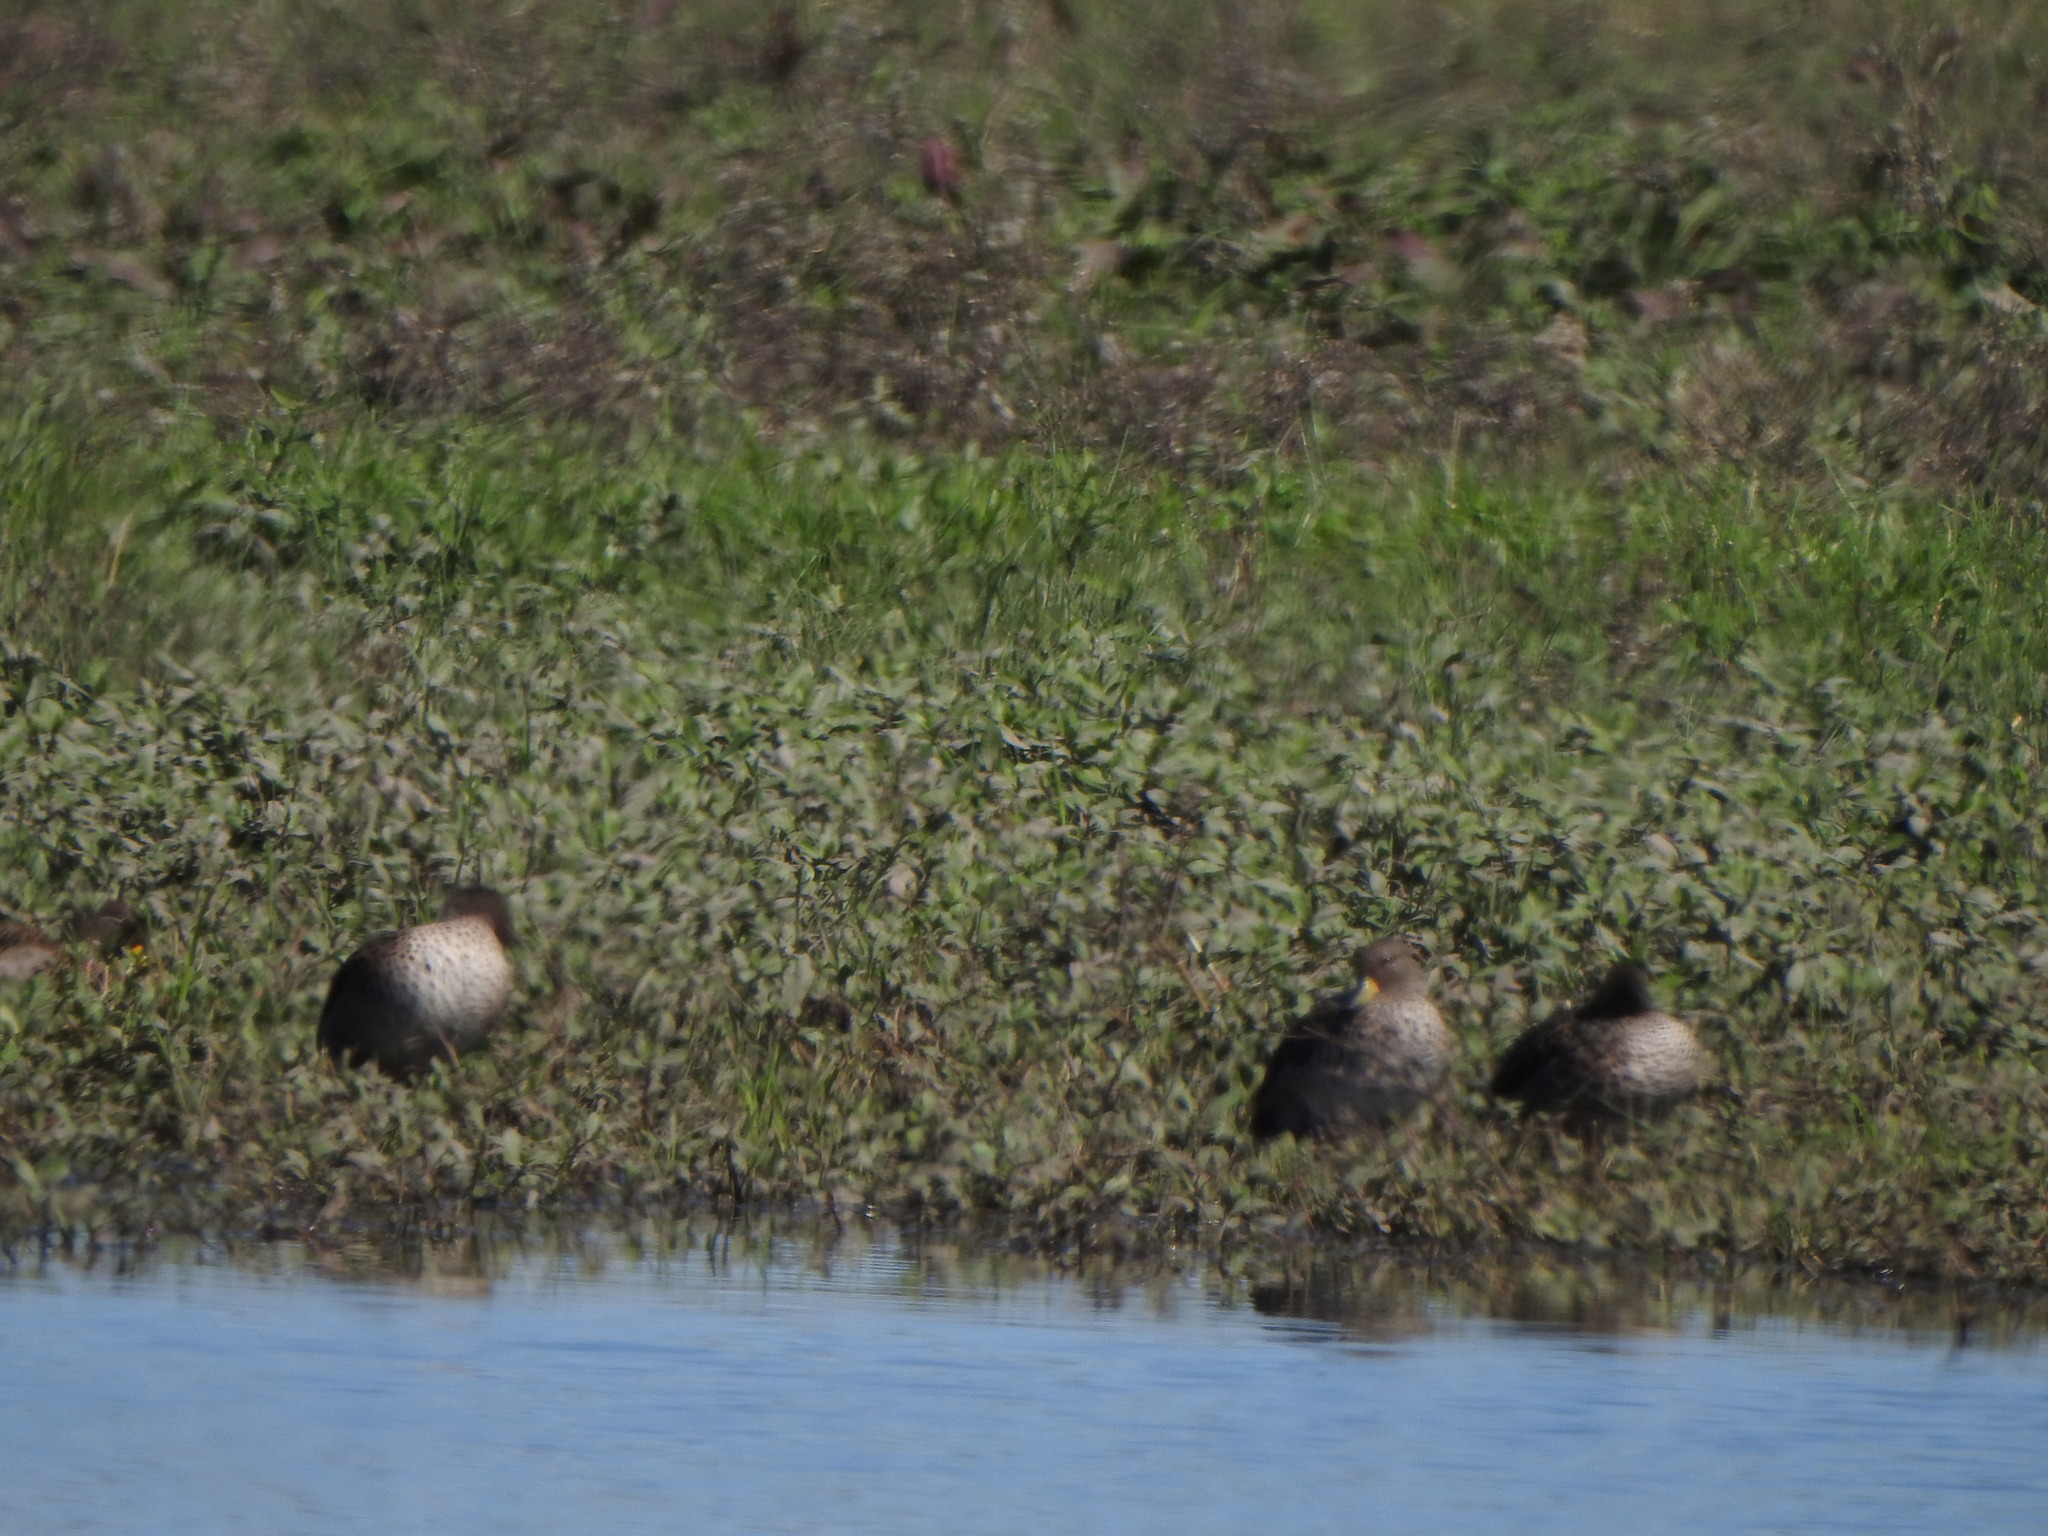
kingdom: Animalia
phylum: Chordata
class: Aves
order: Anseriformes
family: Anatidae
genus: Anas
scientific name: Anas flavirostris
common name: Yellow-billed teal
